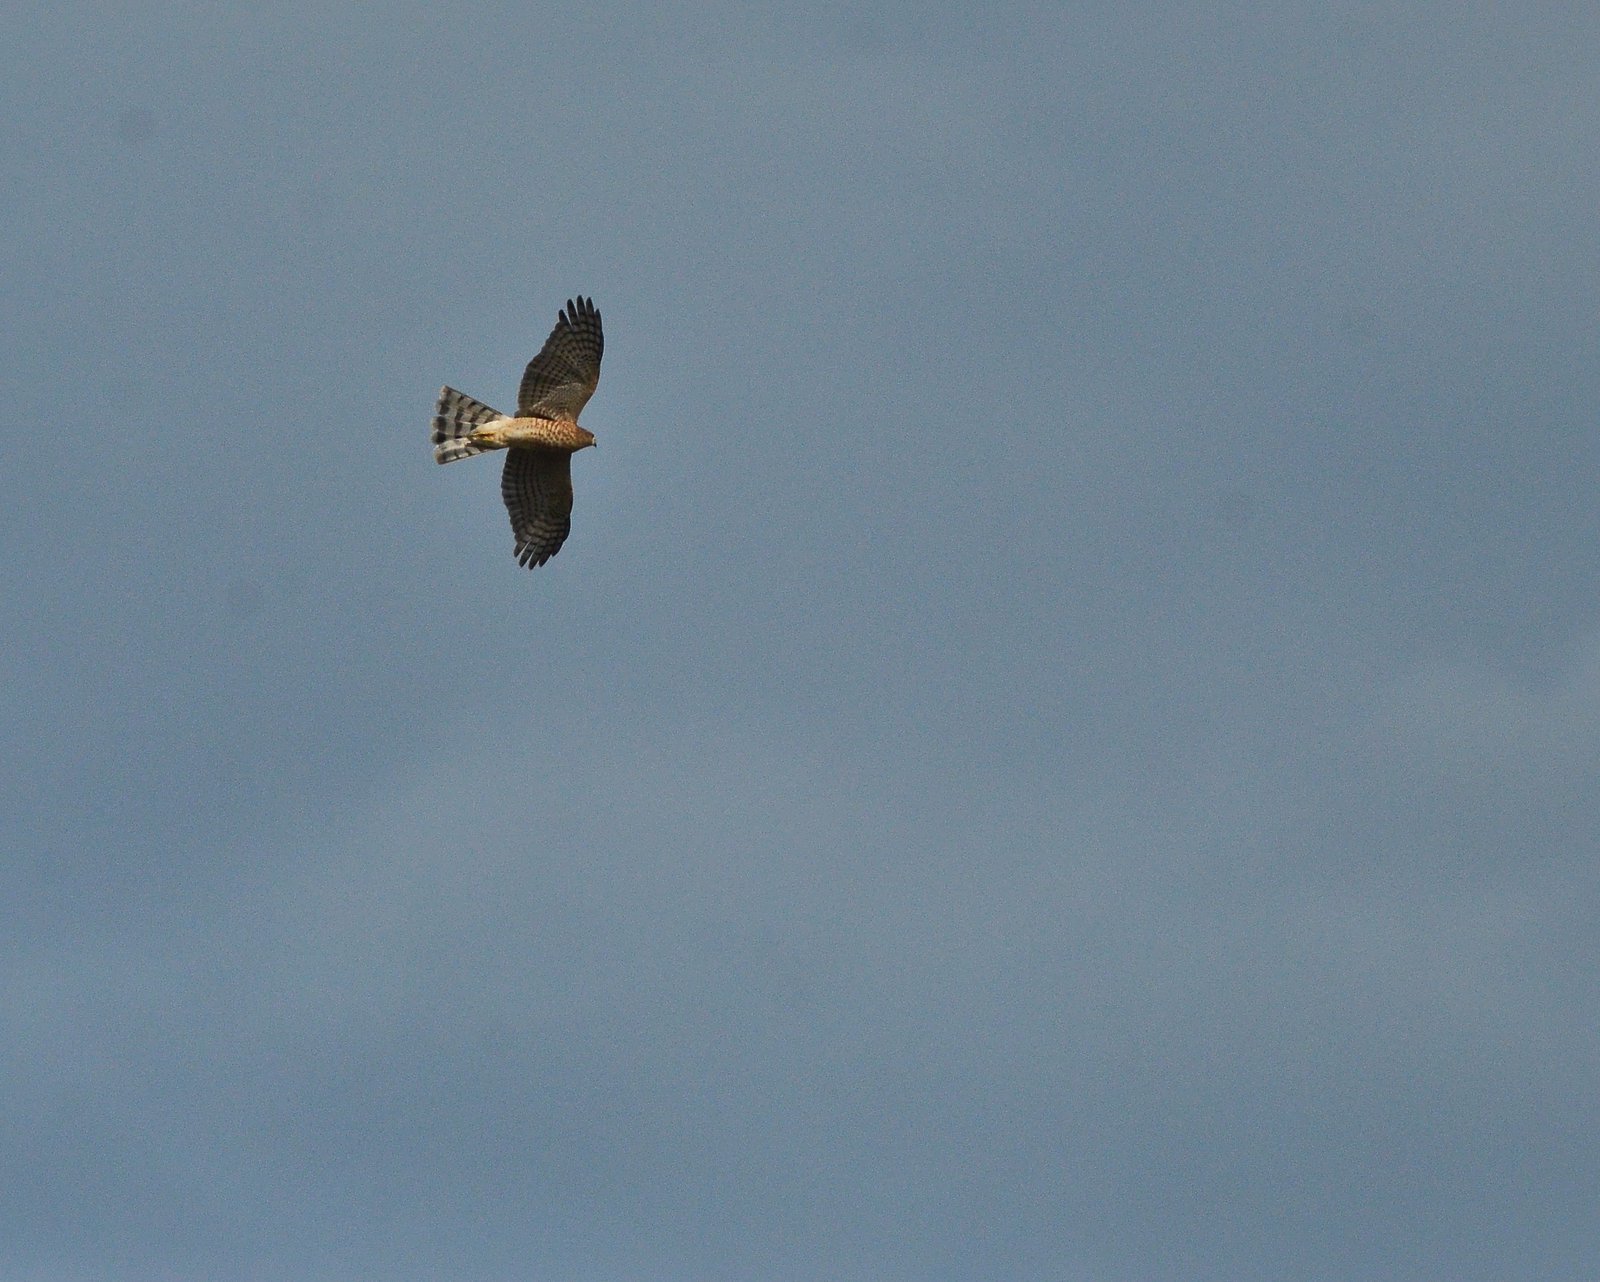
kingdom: Animalia
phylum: Chordata
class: Aves
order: Accipitriformes
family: Accipitridae
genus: Accipiter
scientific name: Accipiter nisus
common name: Eurasian sparrowhawk
